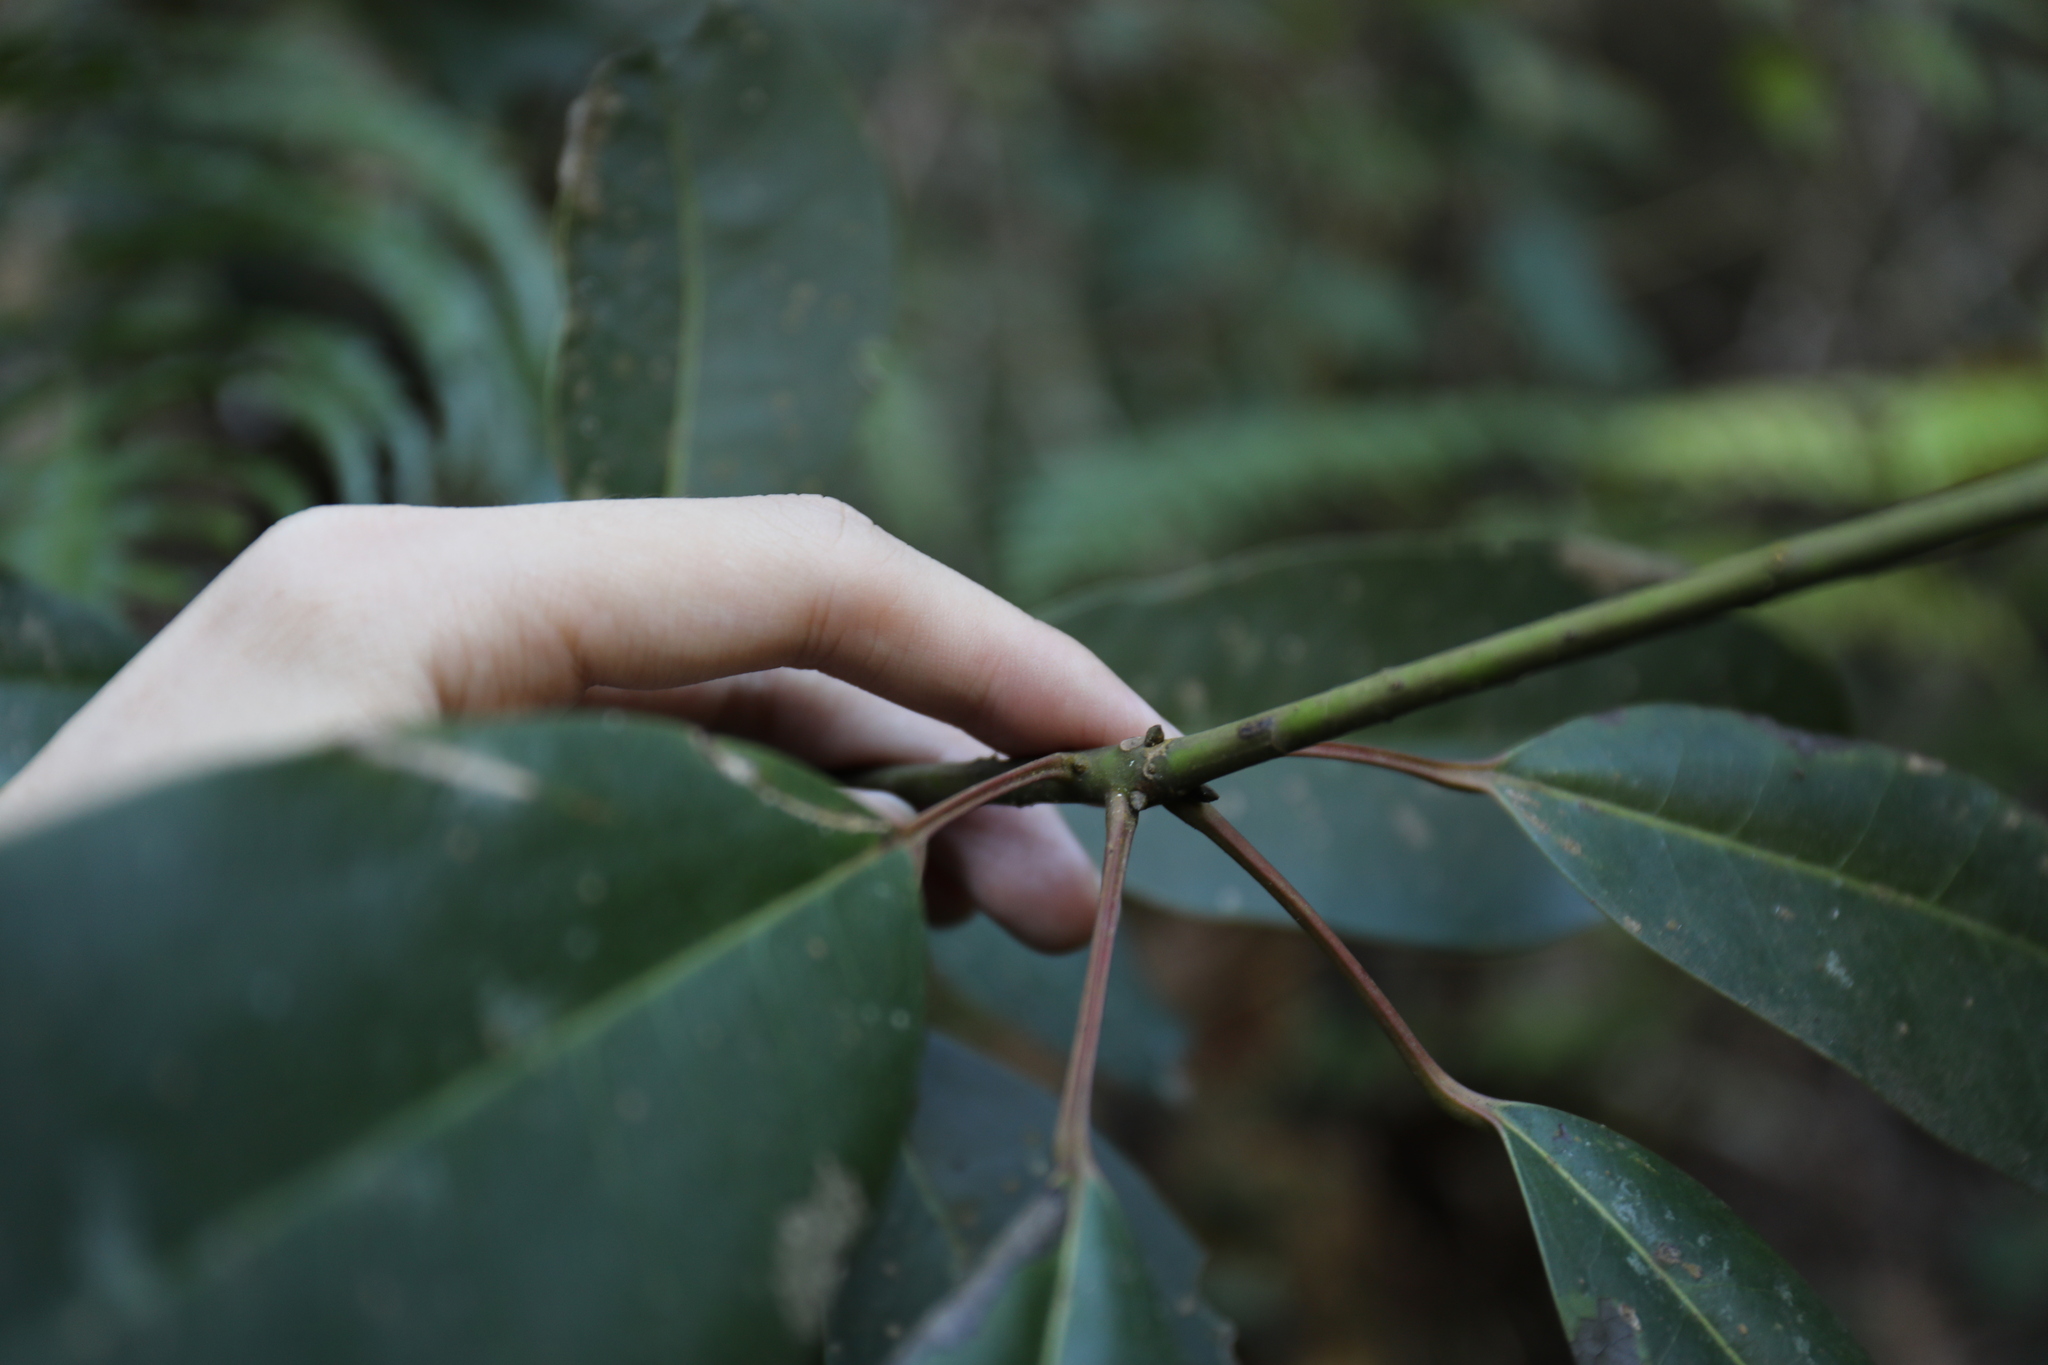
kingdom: Plantae
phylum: Tracheophyta
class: Magnoliopsida
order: Saxifragales
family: Daphniphyllaceae
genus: Daphniphyllum
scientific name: Daphniphyllum pentandrum
